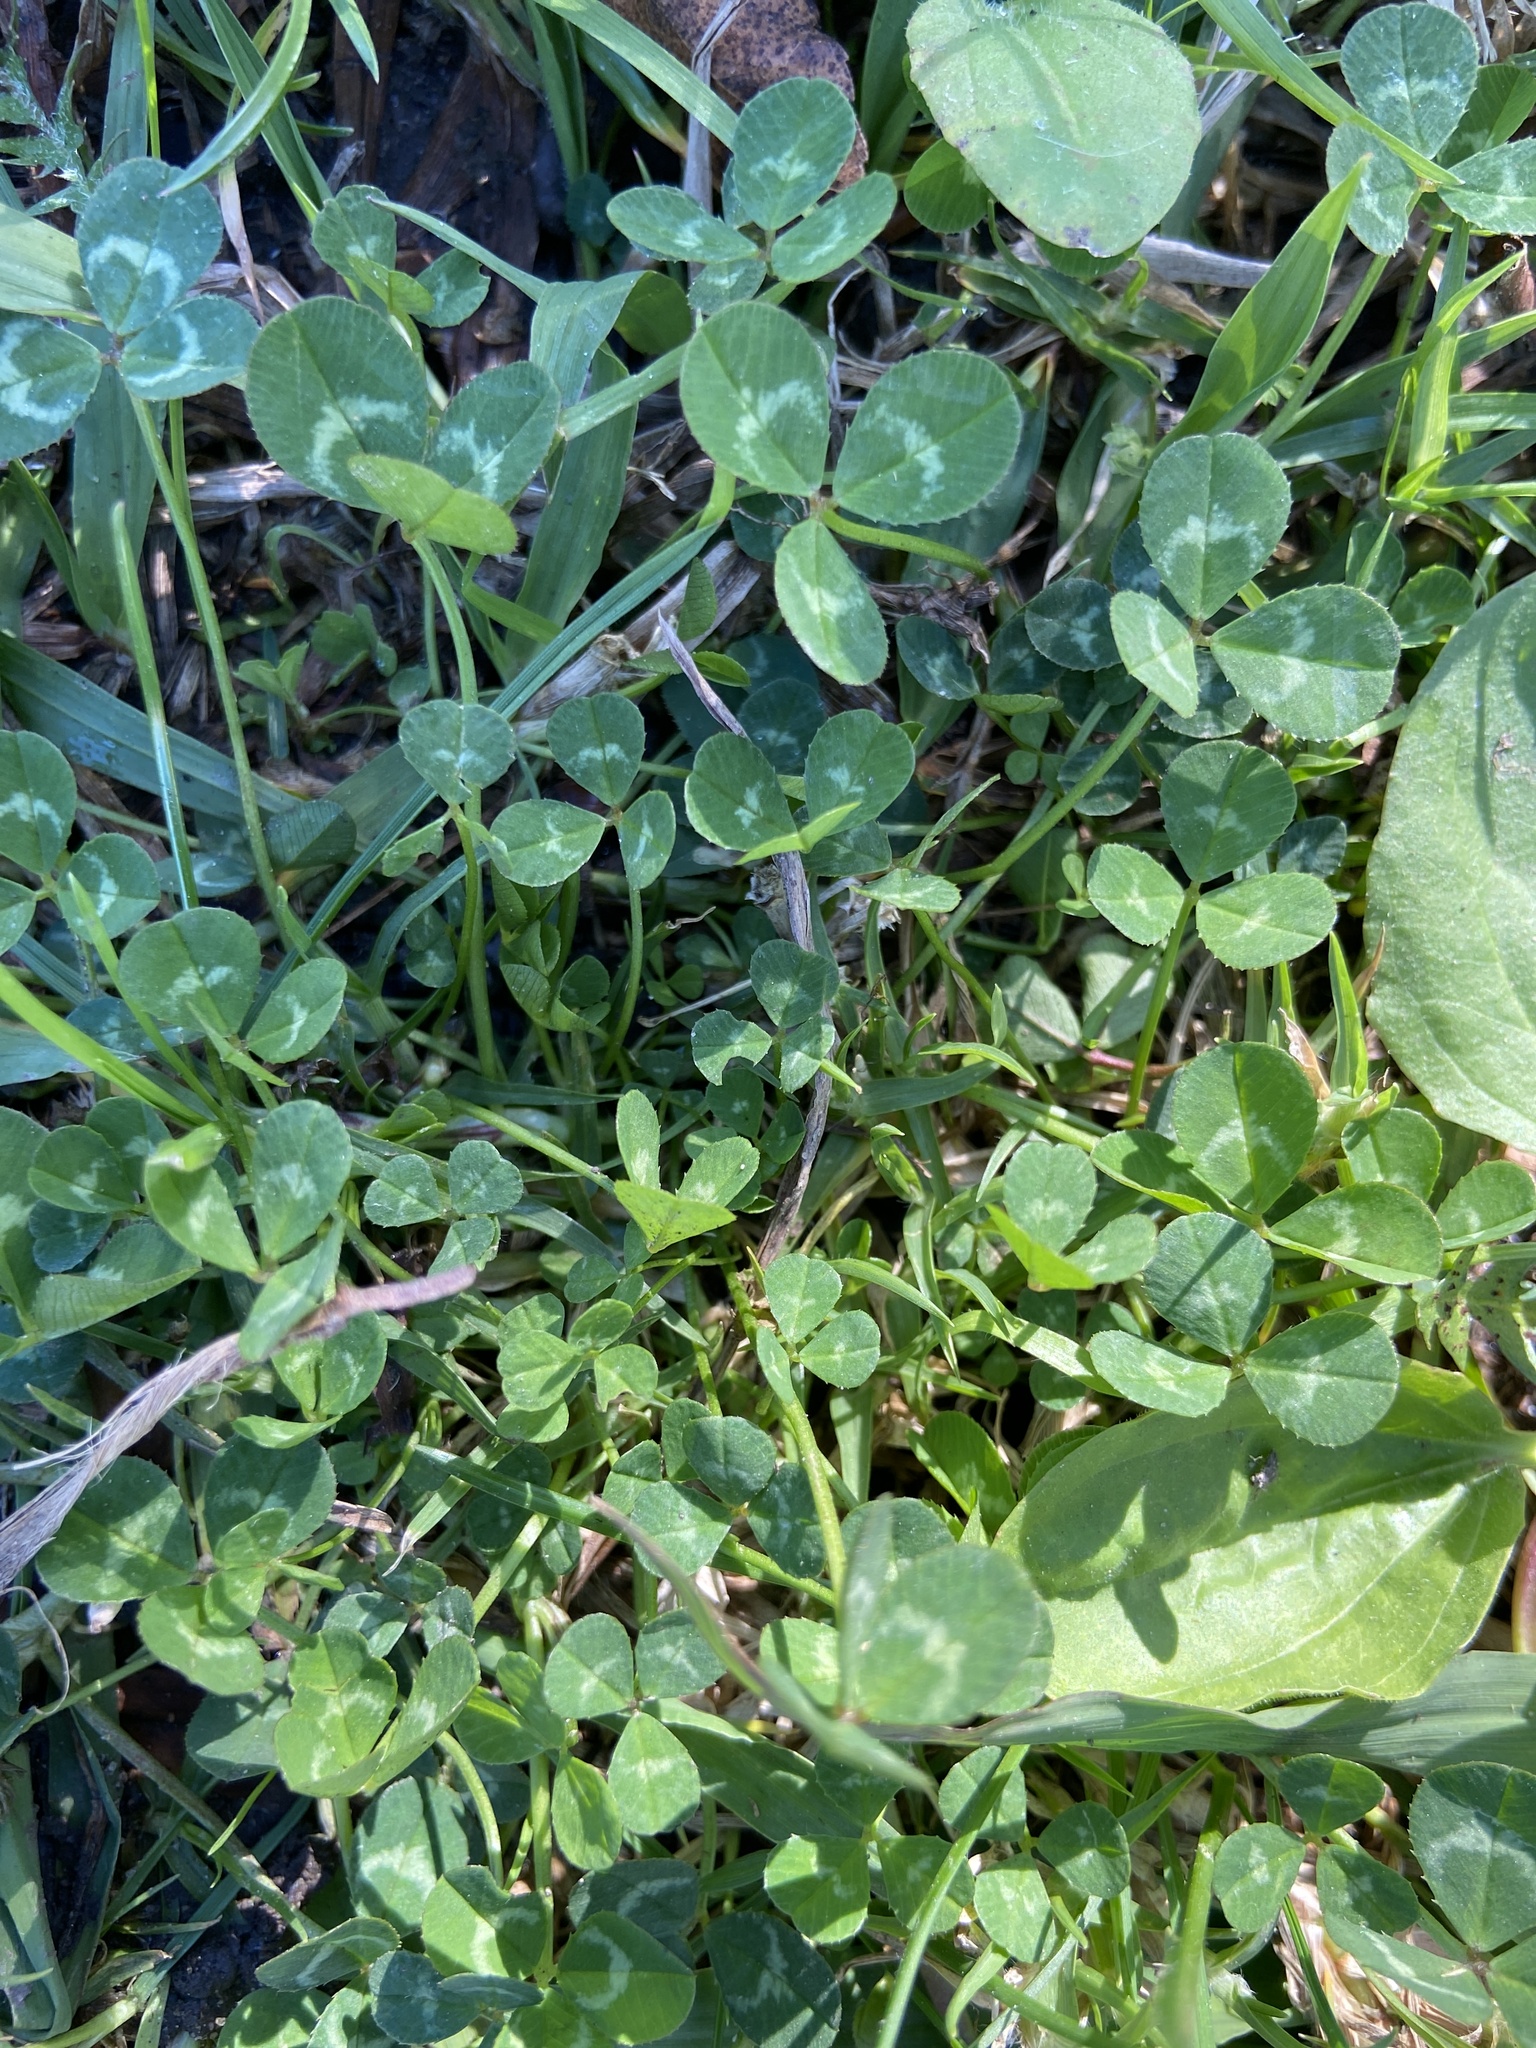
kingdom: Plantae
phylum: Tracheophyta
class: Magnoliopsida
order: Fabales
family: Fabaceae
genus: Trifolium
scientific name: Trifolium repens
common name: White clover
